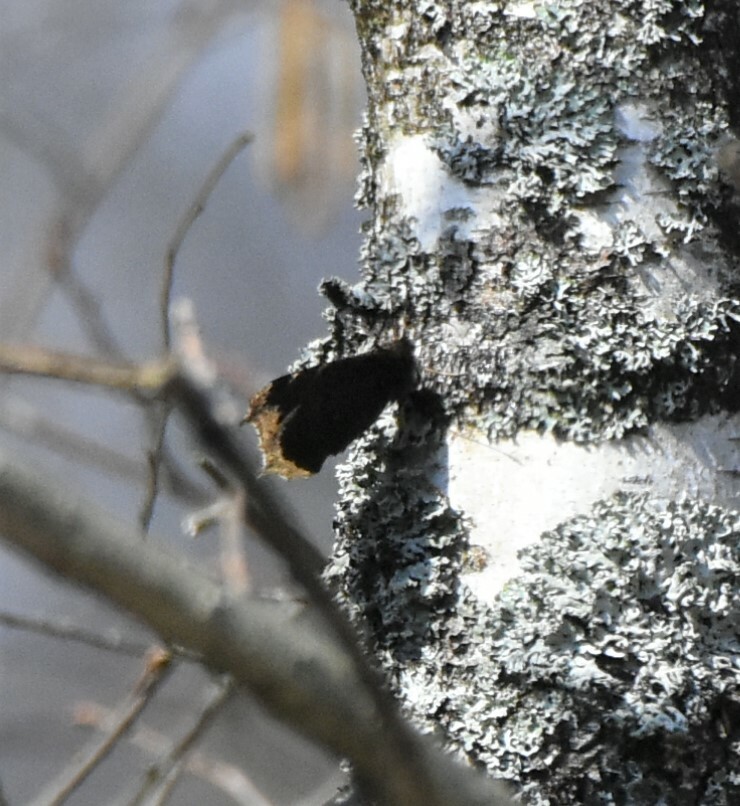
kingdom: Animalia
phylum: Arthropoda
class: Insecta
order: Lepidoptera
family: Nymphalidae
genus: Nymphalis
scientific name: Nymphalis antiopa
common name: Camberwell beauty
